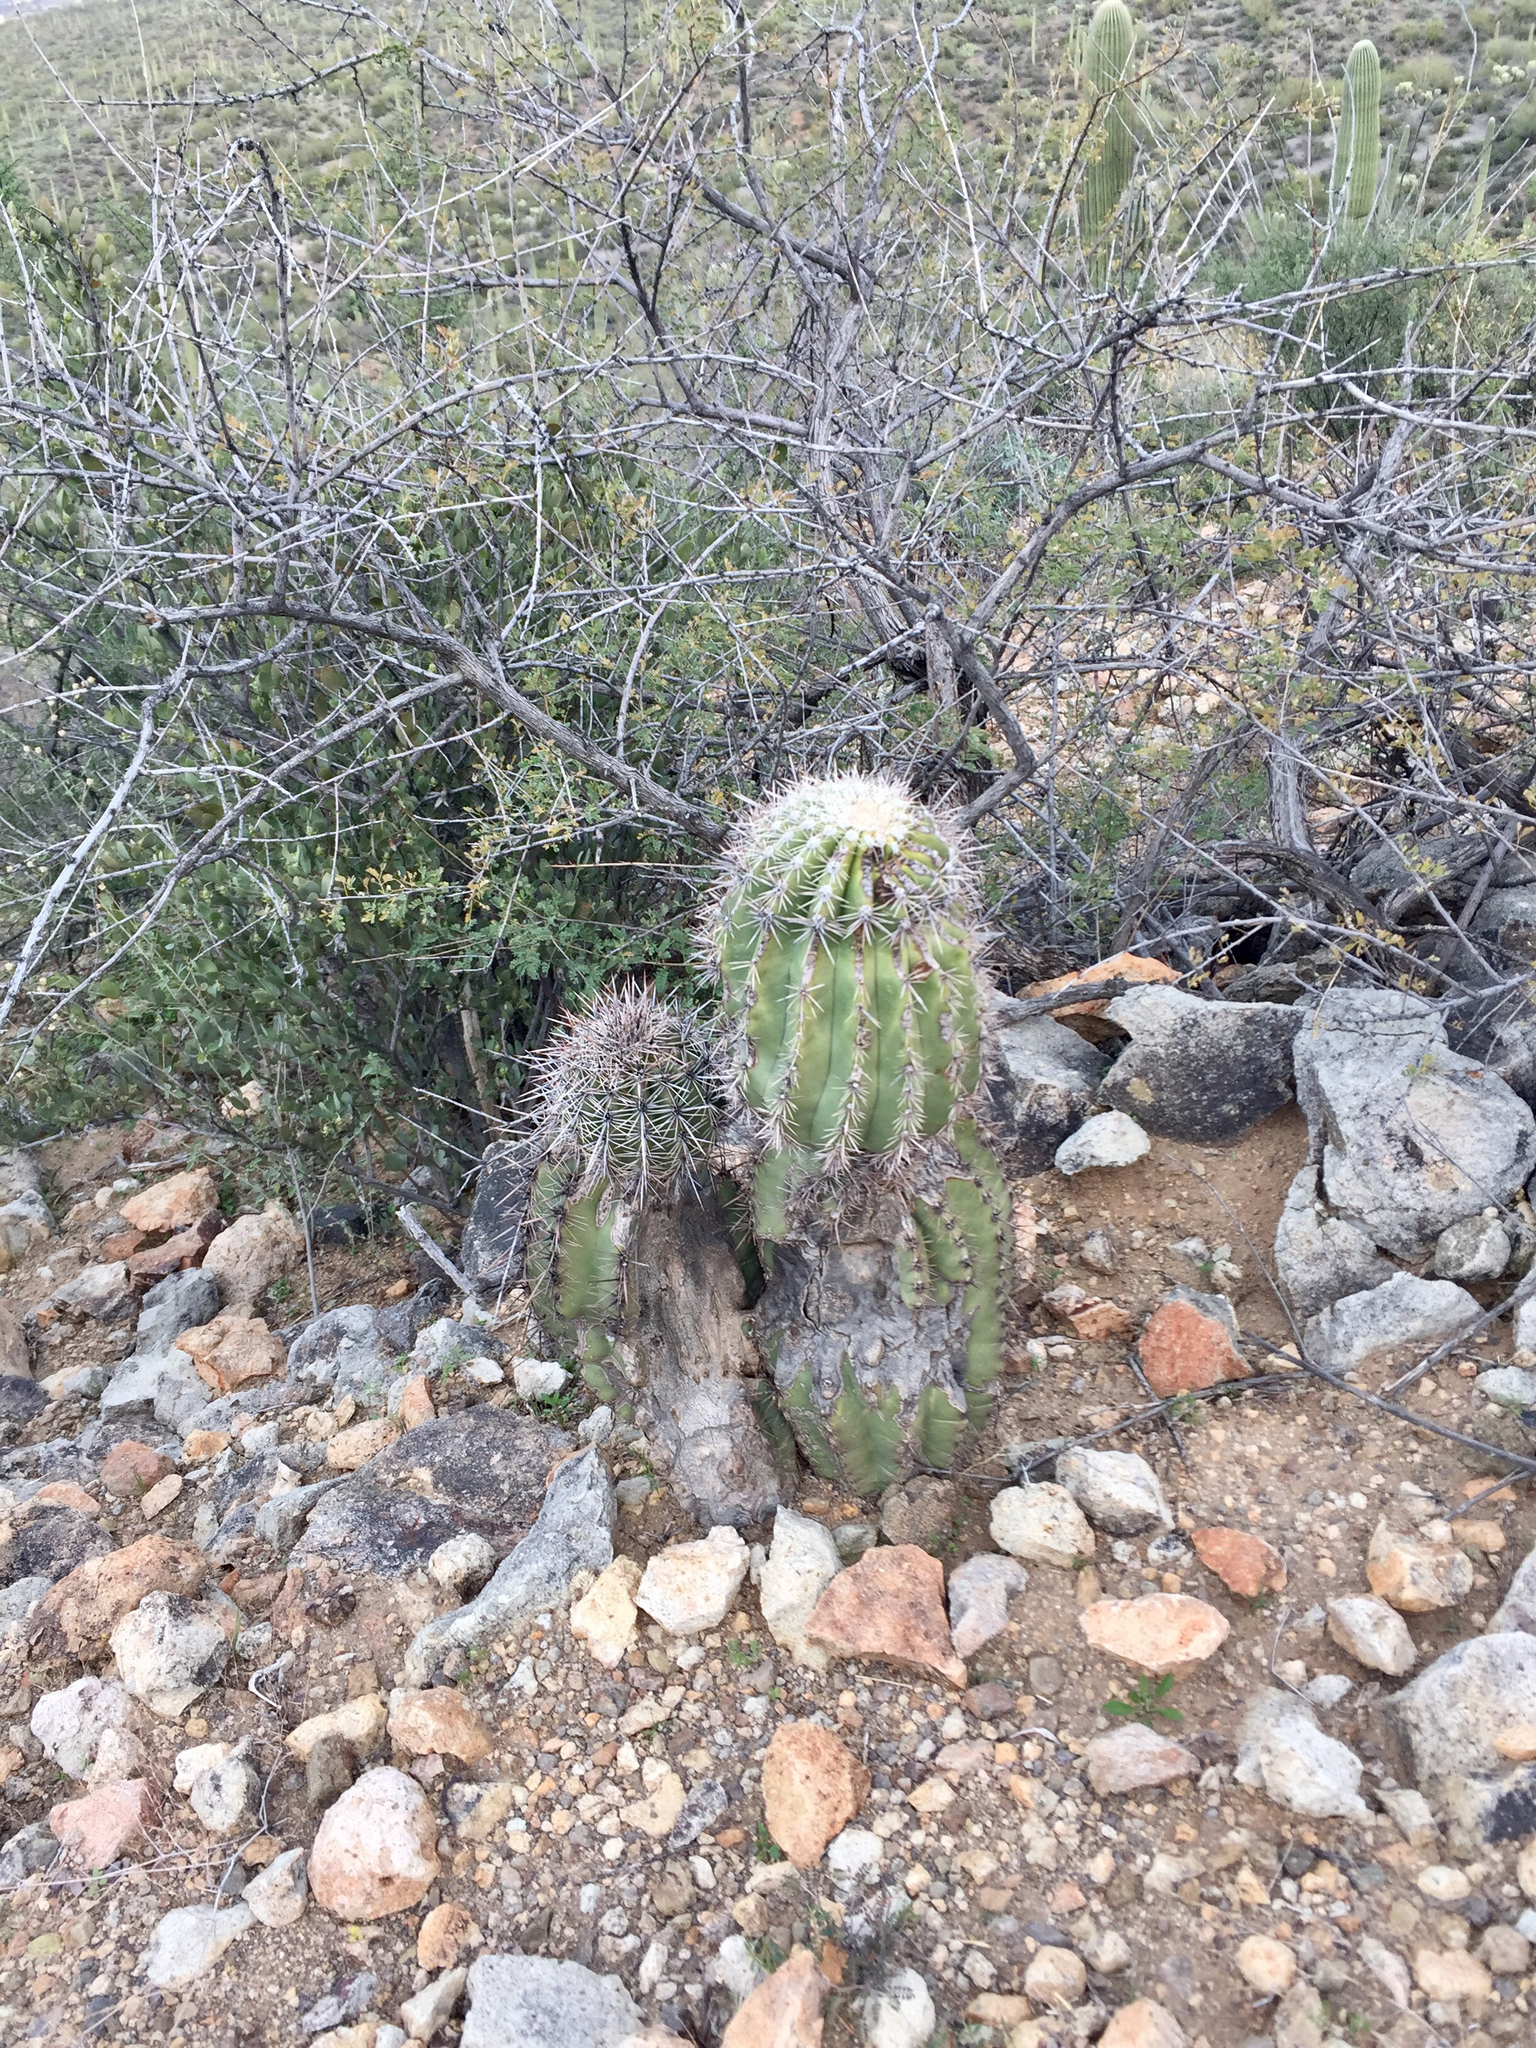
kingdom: Plantae
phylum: Tracheophyta
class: Magnoliopsida
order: Caryophyllales
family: Cactaceae
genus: Carnegiea
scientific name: Carnegiea gigantea
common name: Saguaro
